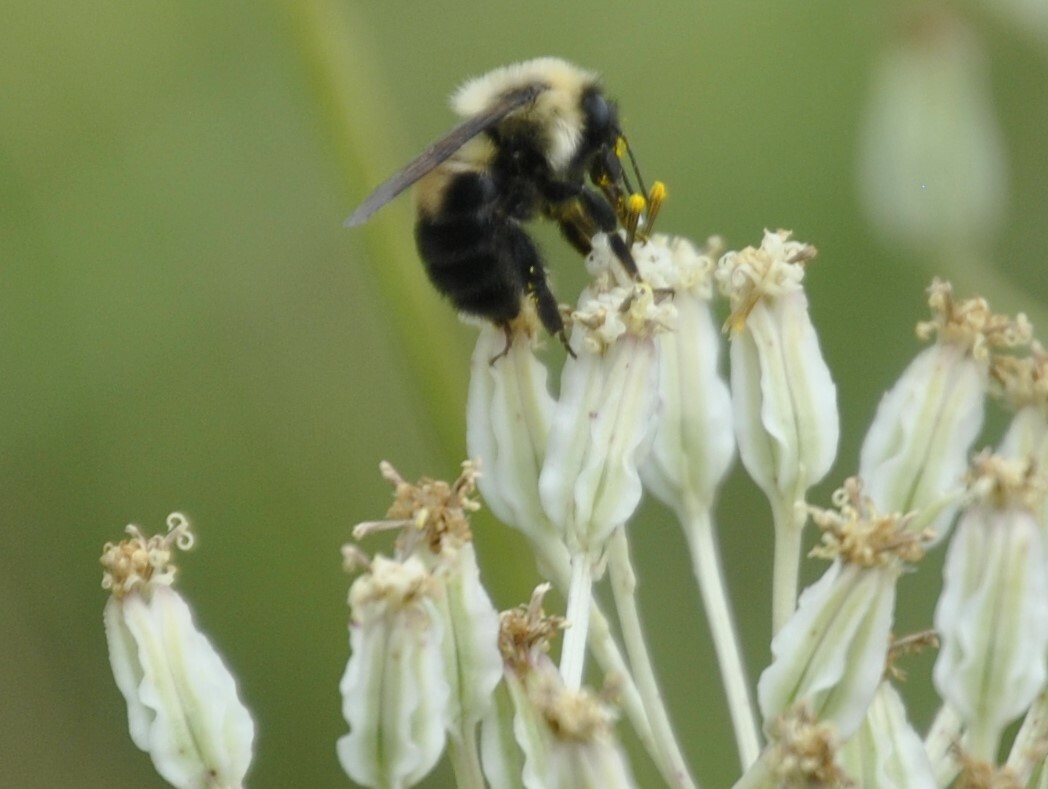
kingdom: Animalia
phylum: Arthropoda
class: Insecta
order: Hymenoptera
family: Apidae
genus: Bombus
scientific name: Bombus bimaculatus
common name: Two-spotted bumble bee
